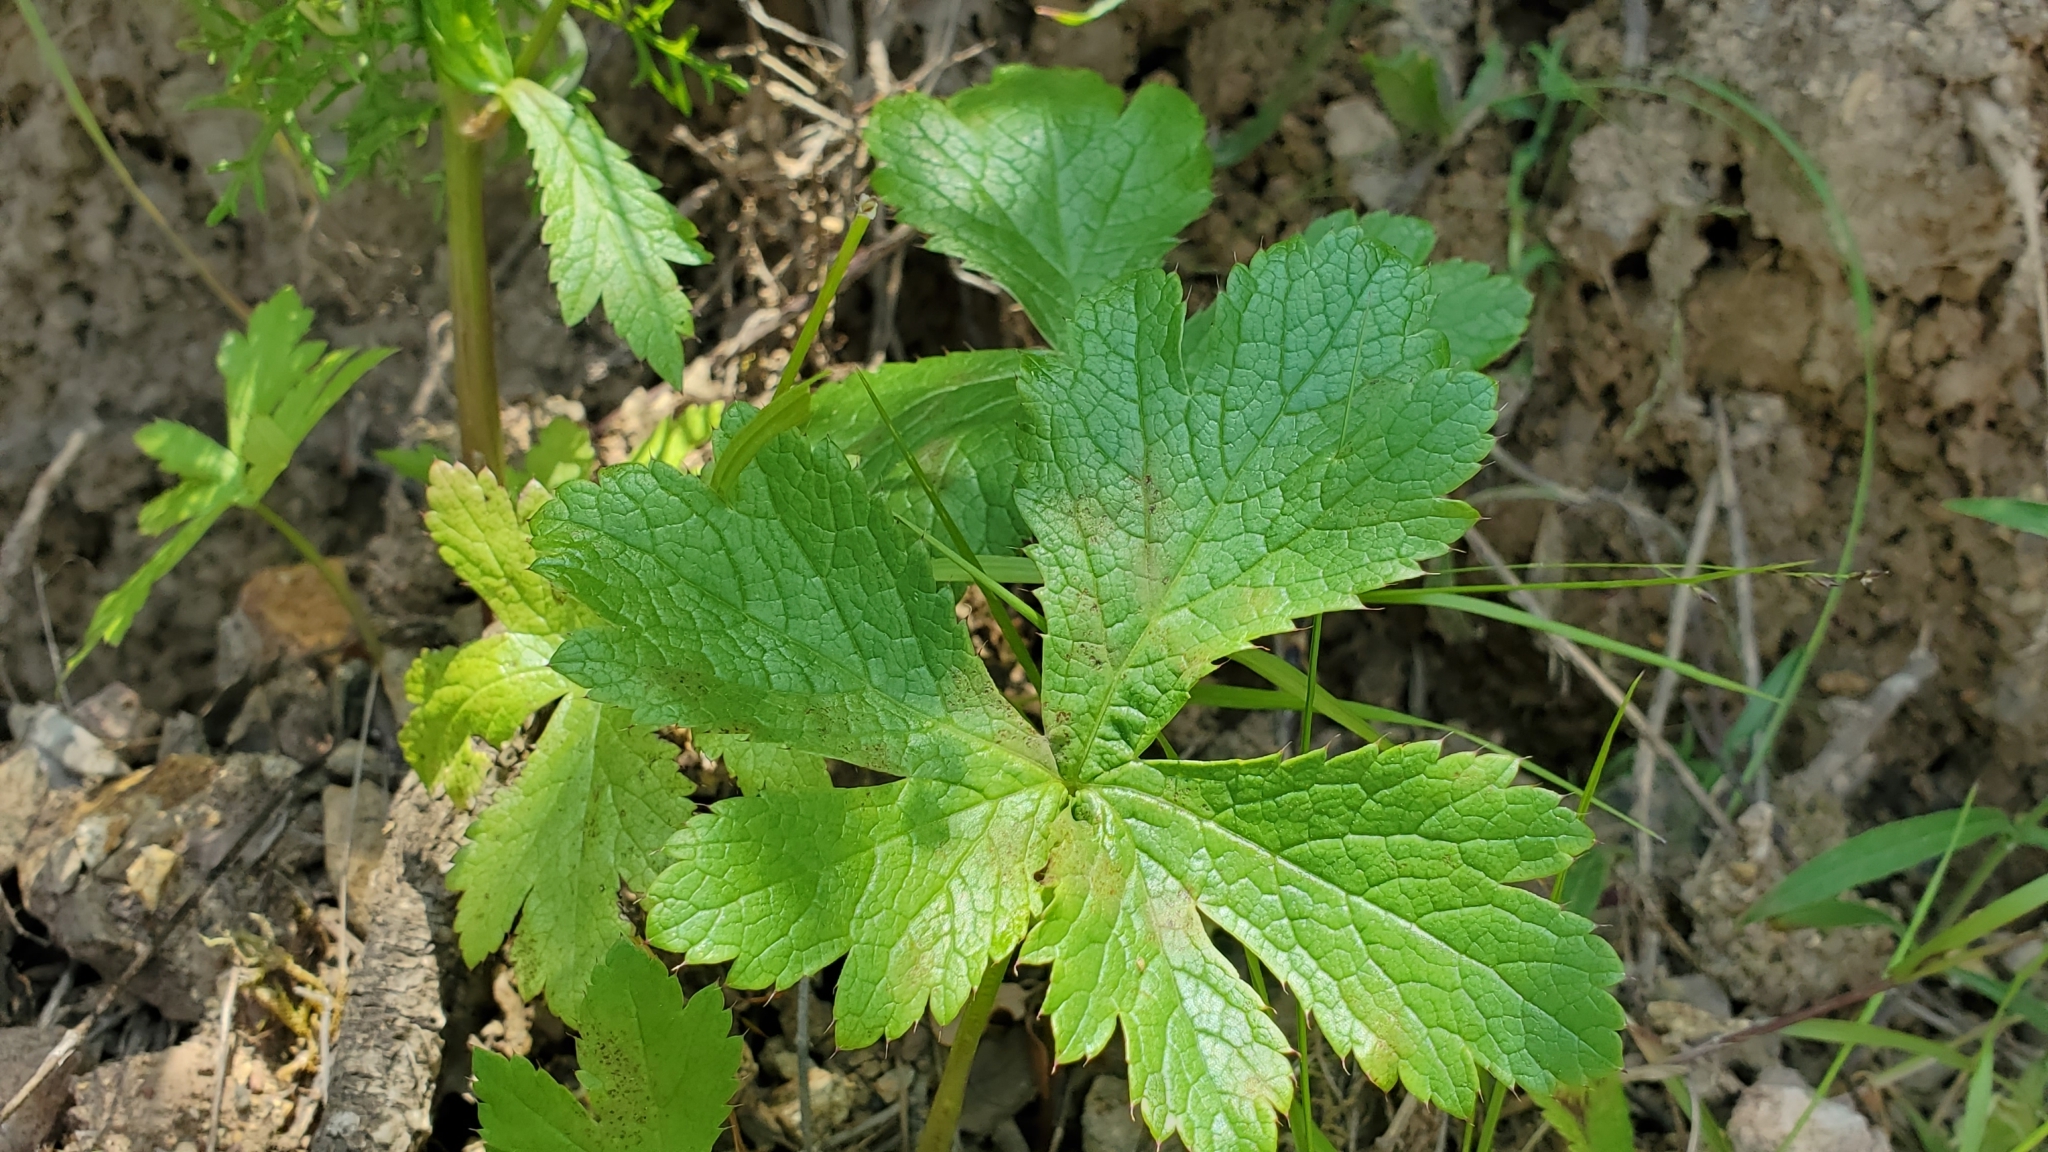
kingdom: Plantae
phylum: Tracheophyta
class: Magnoliopsida
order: Apiales
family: Apiaceae
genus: Sanicula
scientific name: Sanicula crassicaulis
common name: Western snakeroot
